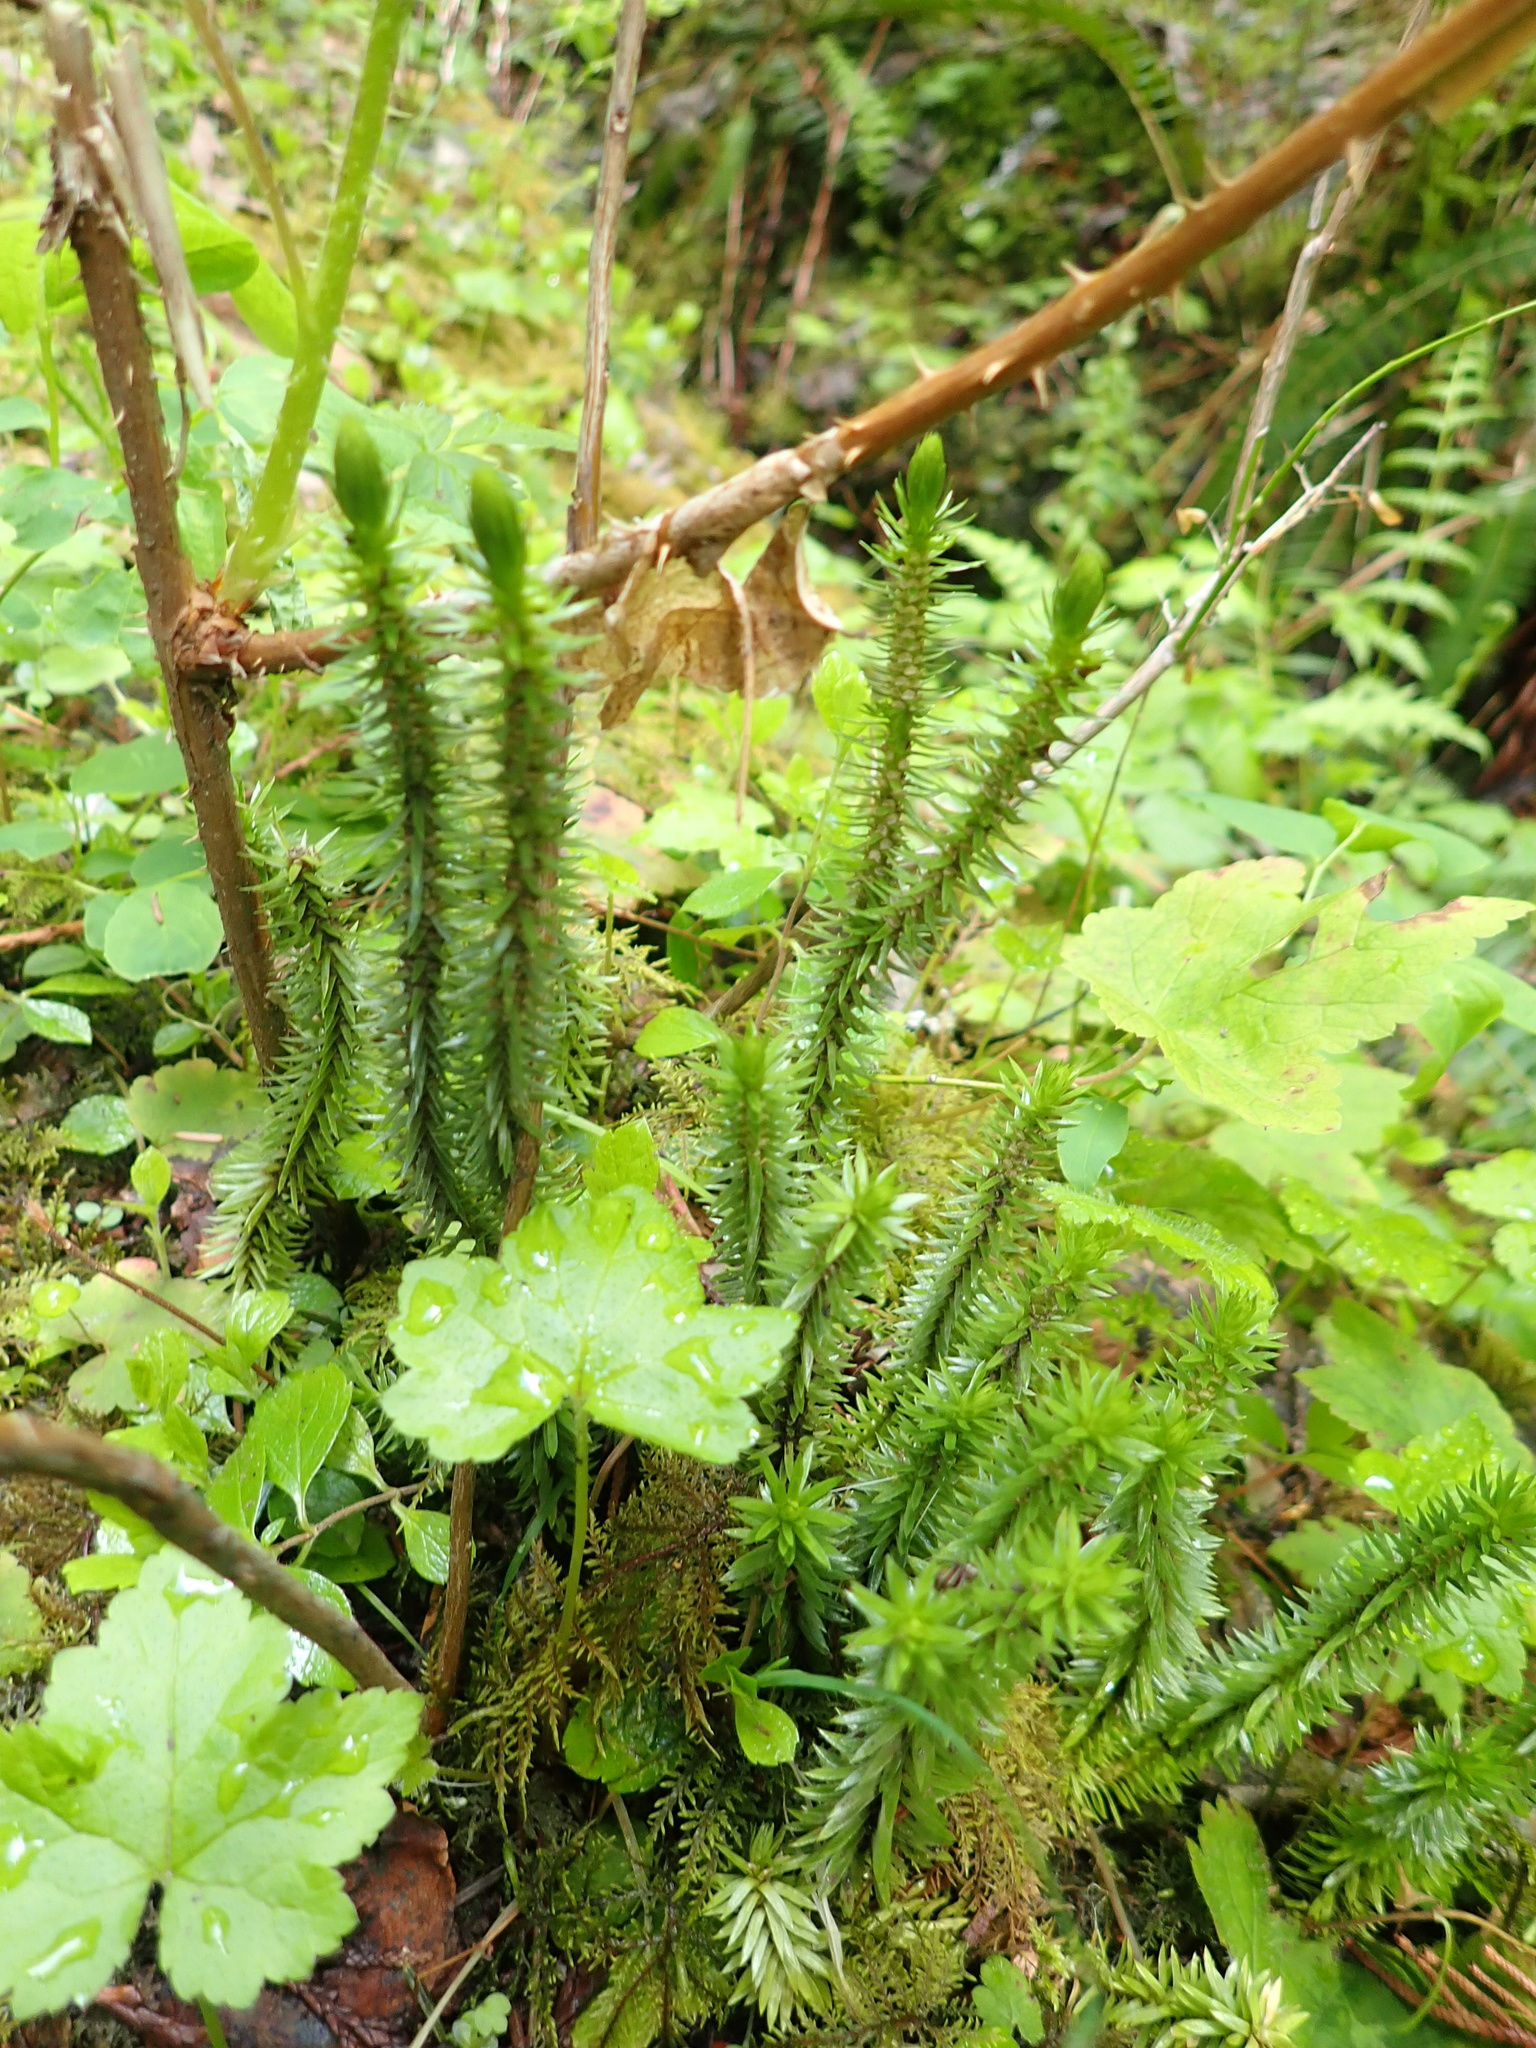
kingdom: Plantae
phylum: Tracheophyta
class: Lycopodiopsida
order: Lycopodiales
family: Lycopodiaceae
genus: Huperzia
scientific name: Huperzia miyoshiana
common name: Chinese clubmoss
